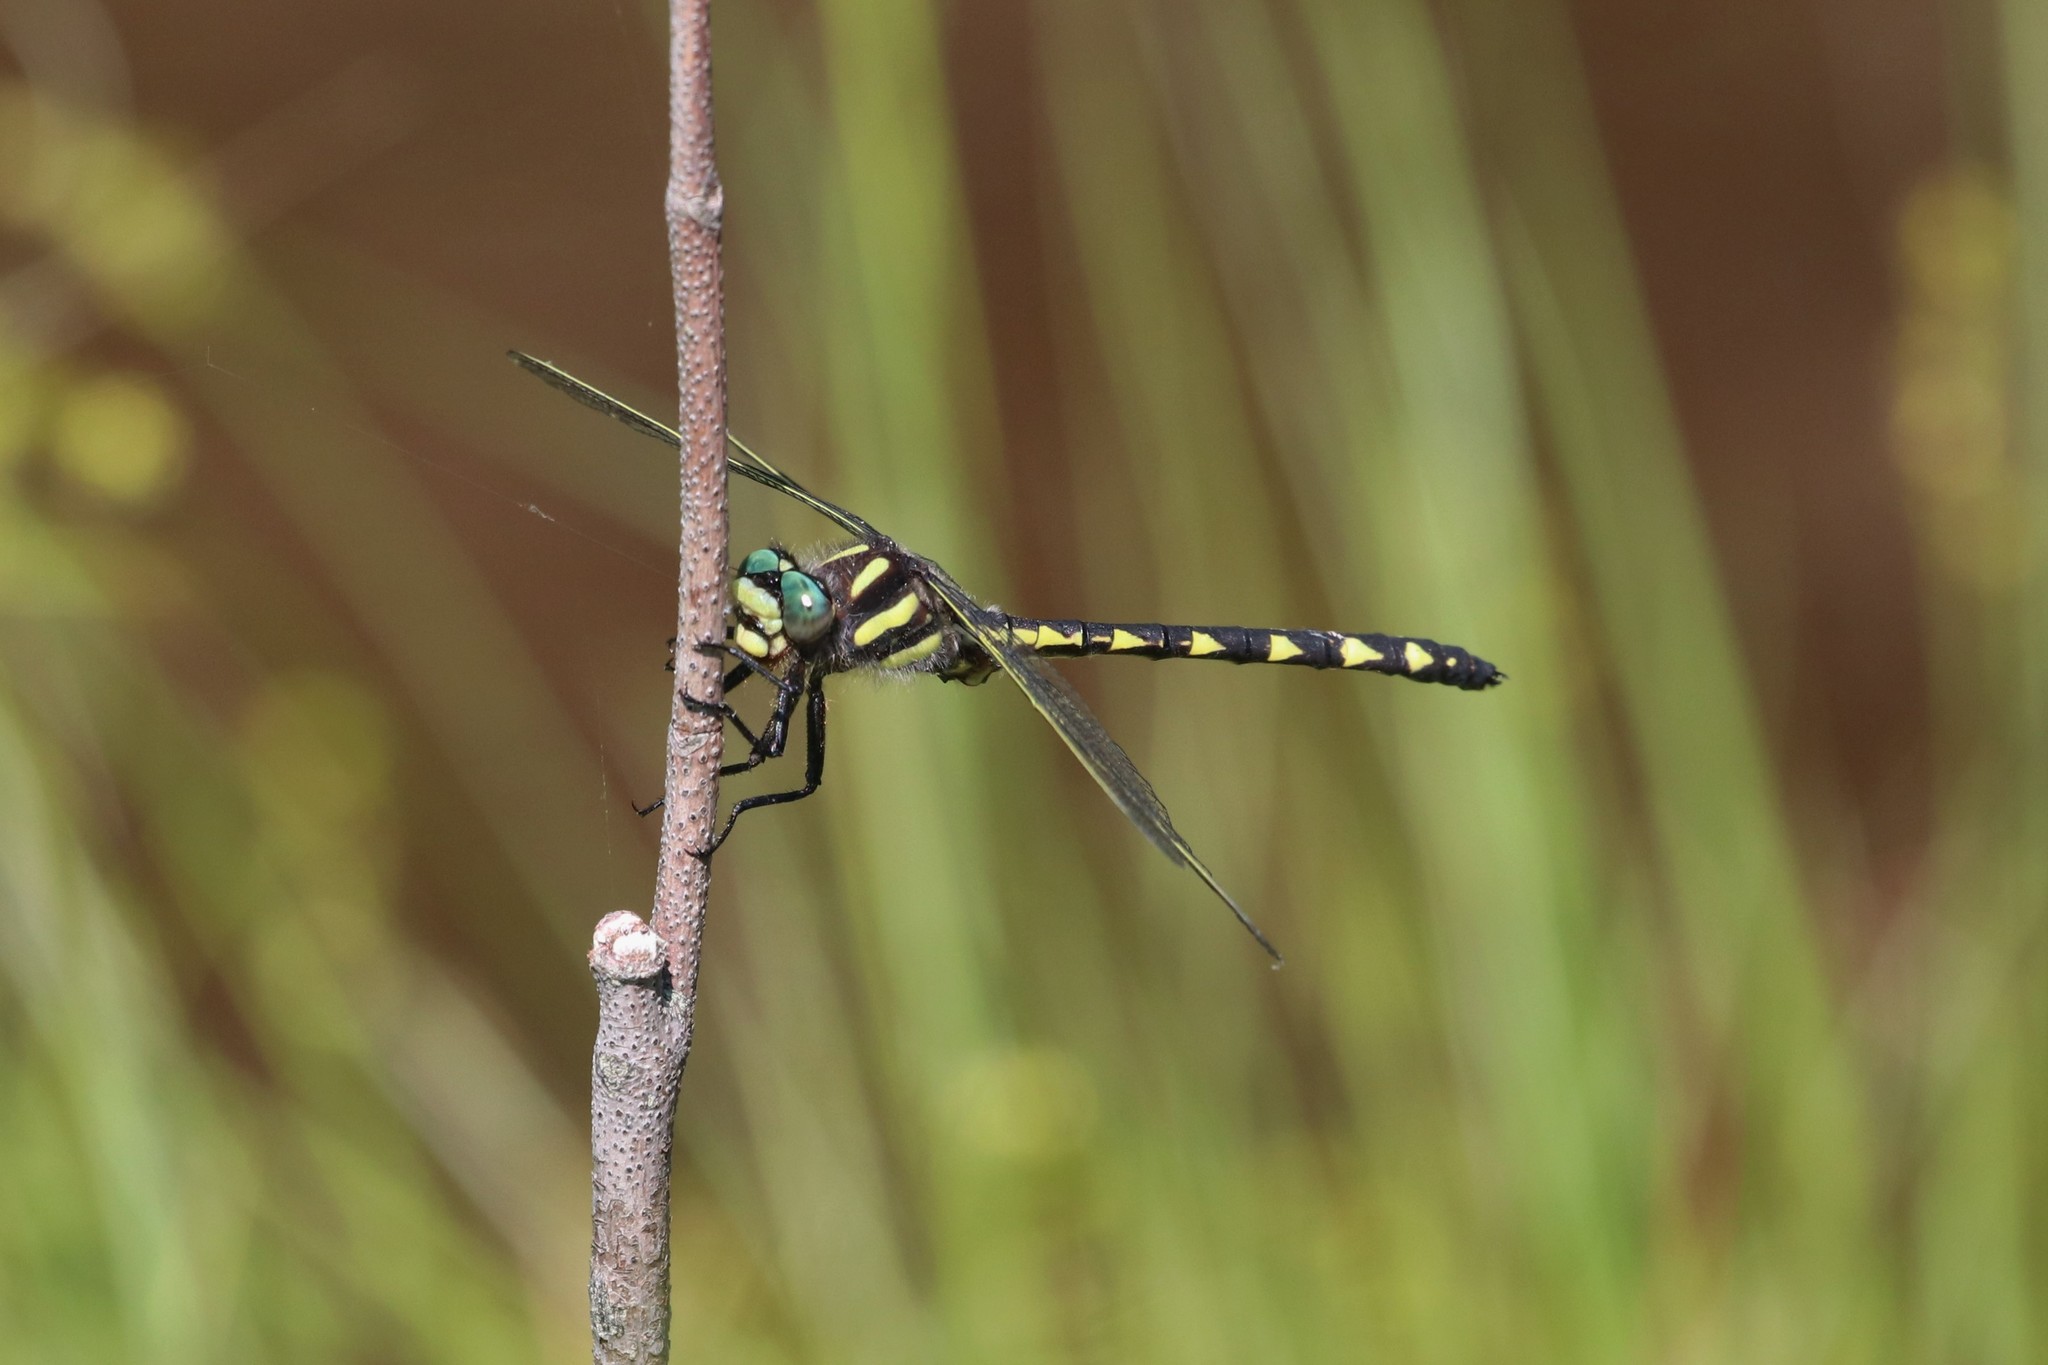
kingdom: Animalia
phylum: Arthropoda
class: Insecta
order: Odonata
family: Cordulegastridae
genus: Cordulegaster
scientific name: Cordulegaster diastatops
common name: Delta-spotted spiketail
